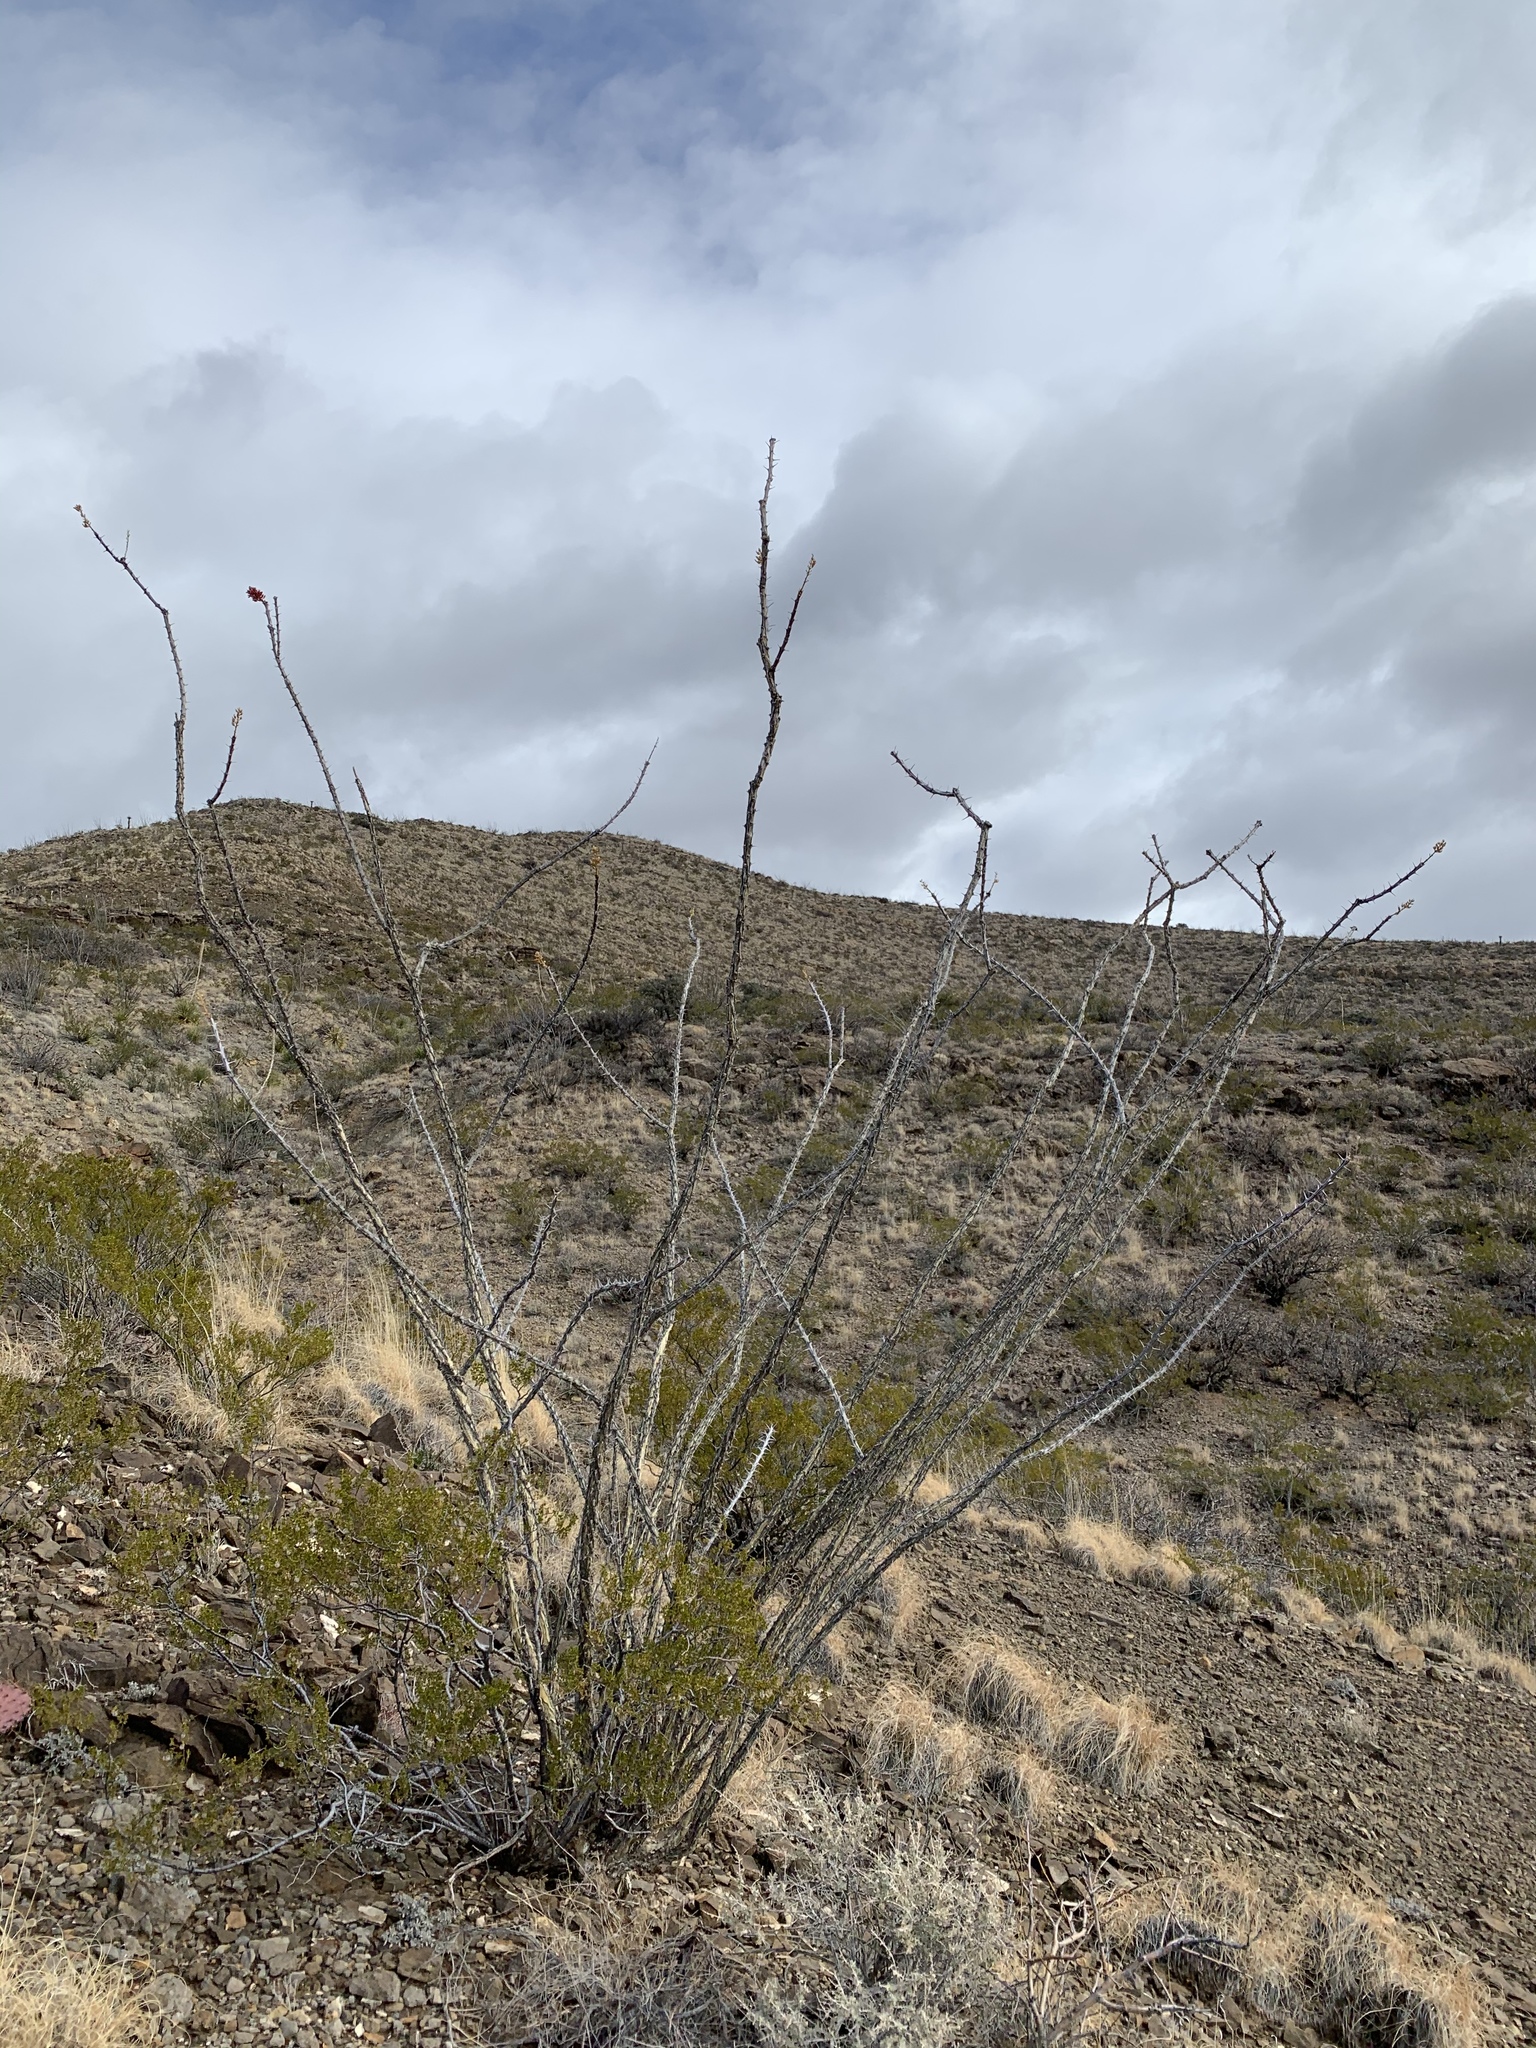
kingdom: Plantae
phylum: Tracheophyta
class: Magnoliopsida
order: Ericales
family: Fouquieriaceae
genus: Fouquieria
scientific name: Fouquieria splendens
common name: Vine-cactus
